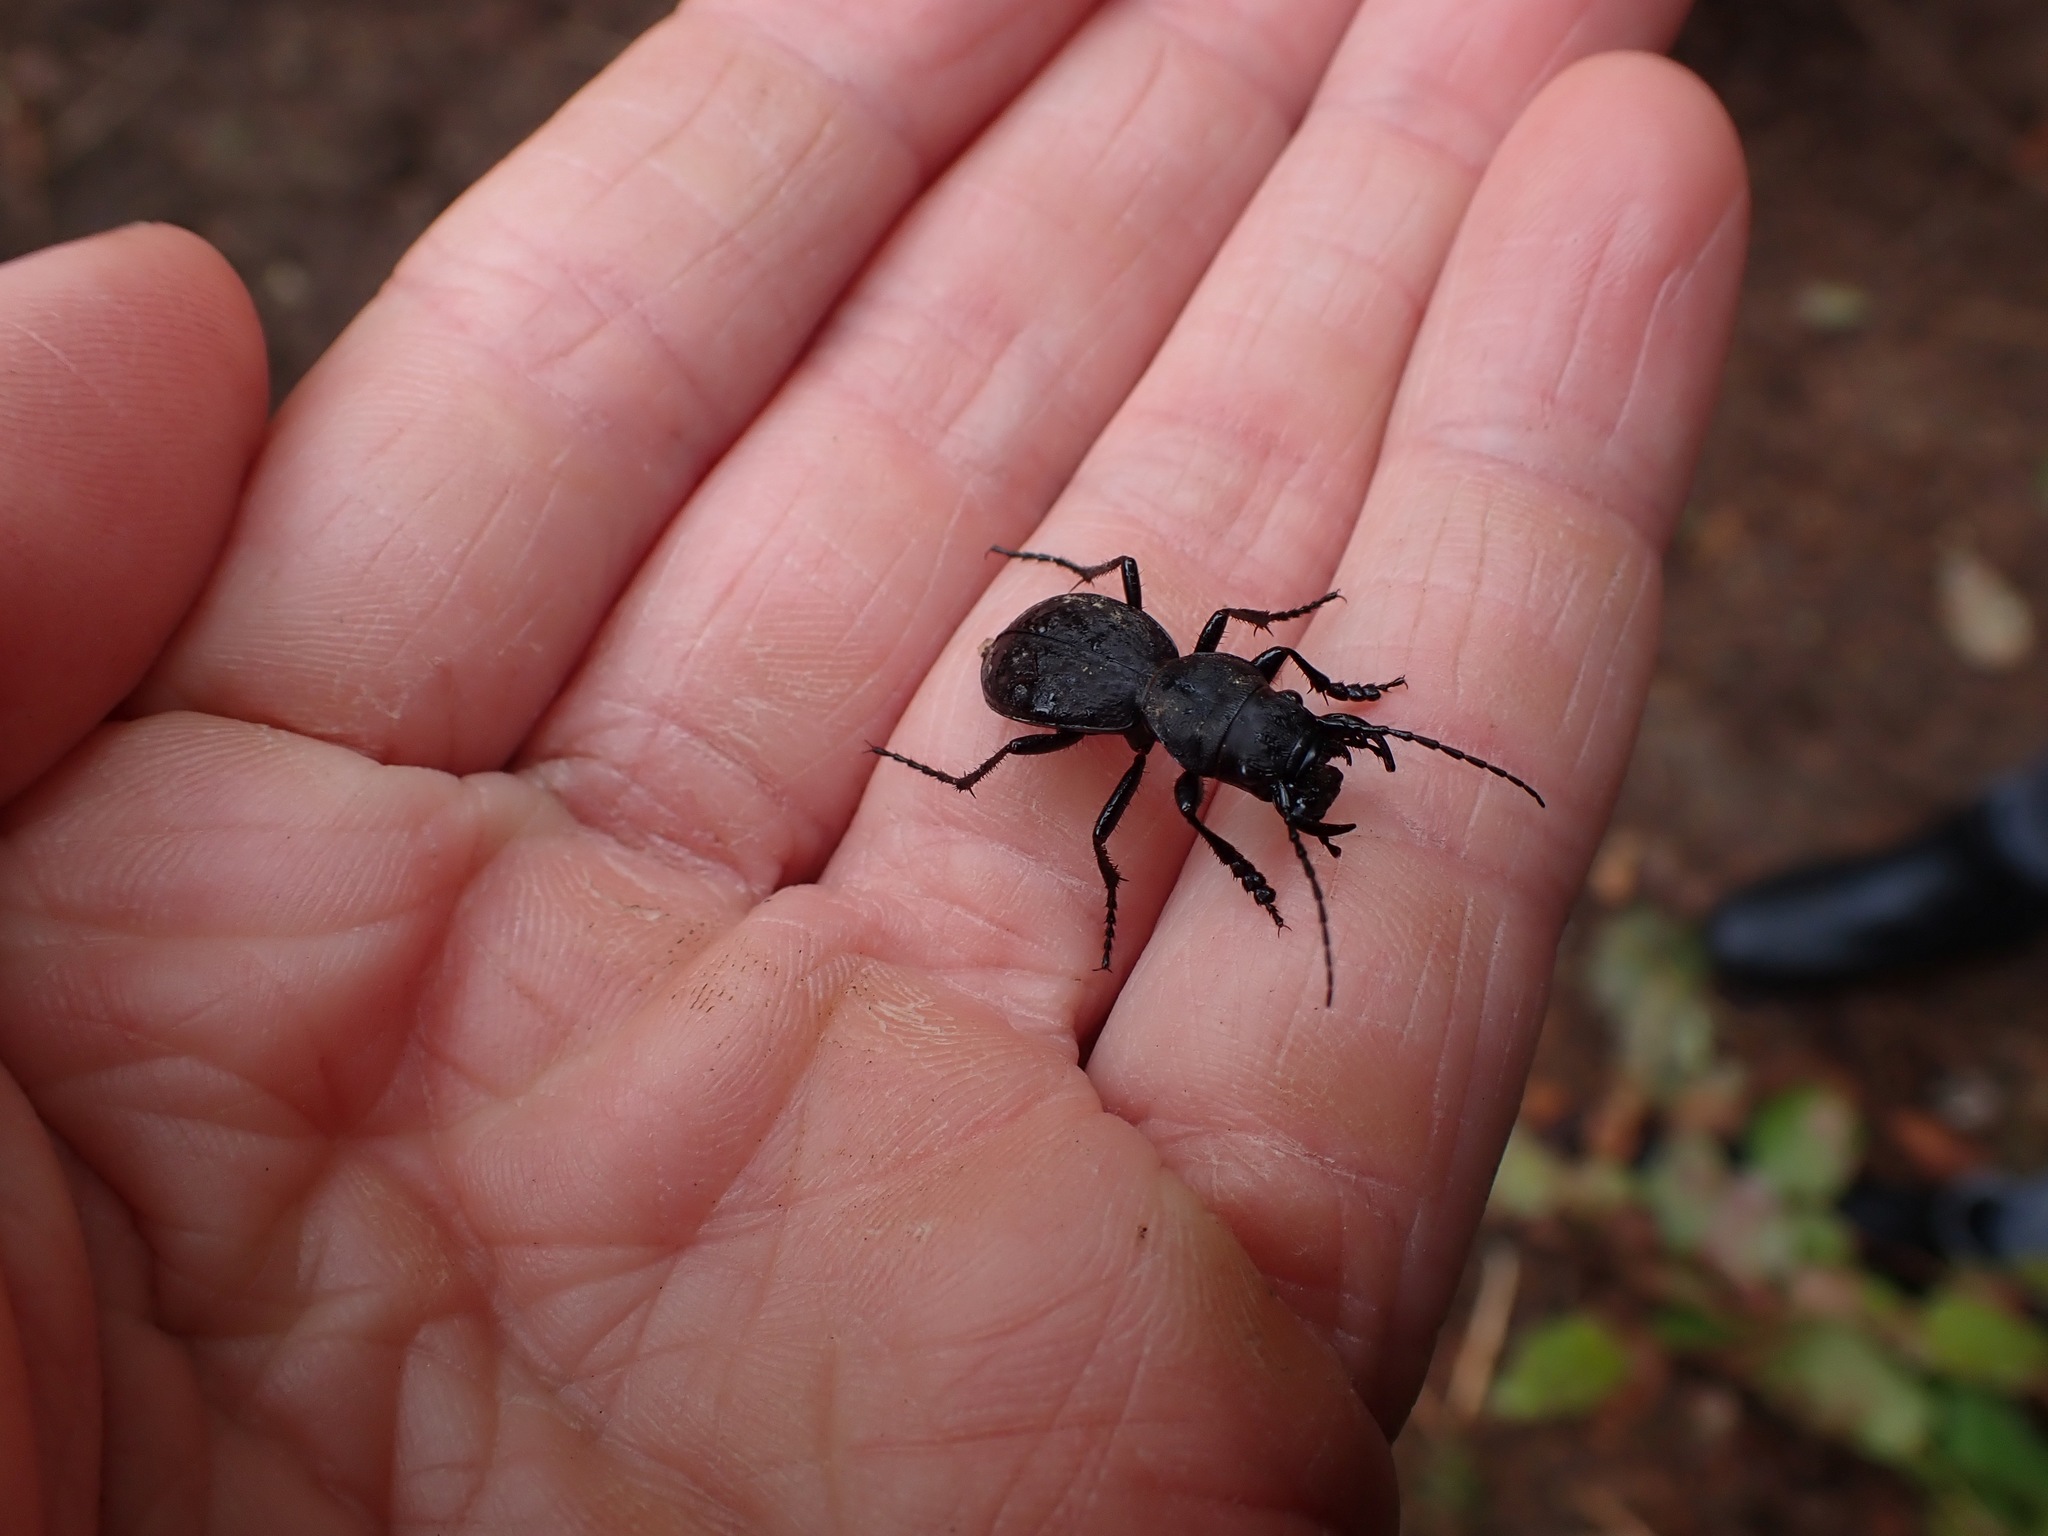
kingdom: Animalia
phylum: Arthropoda
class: Insecta
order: Coleoptera
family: Carabidae
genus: Omus
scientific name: Omus dejeanii
